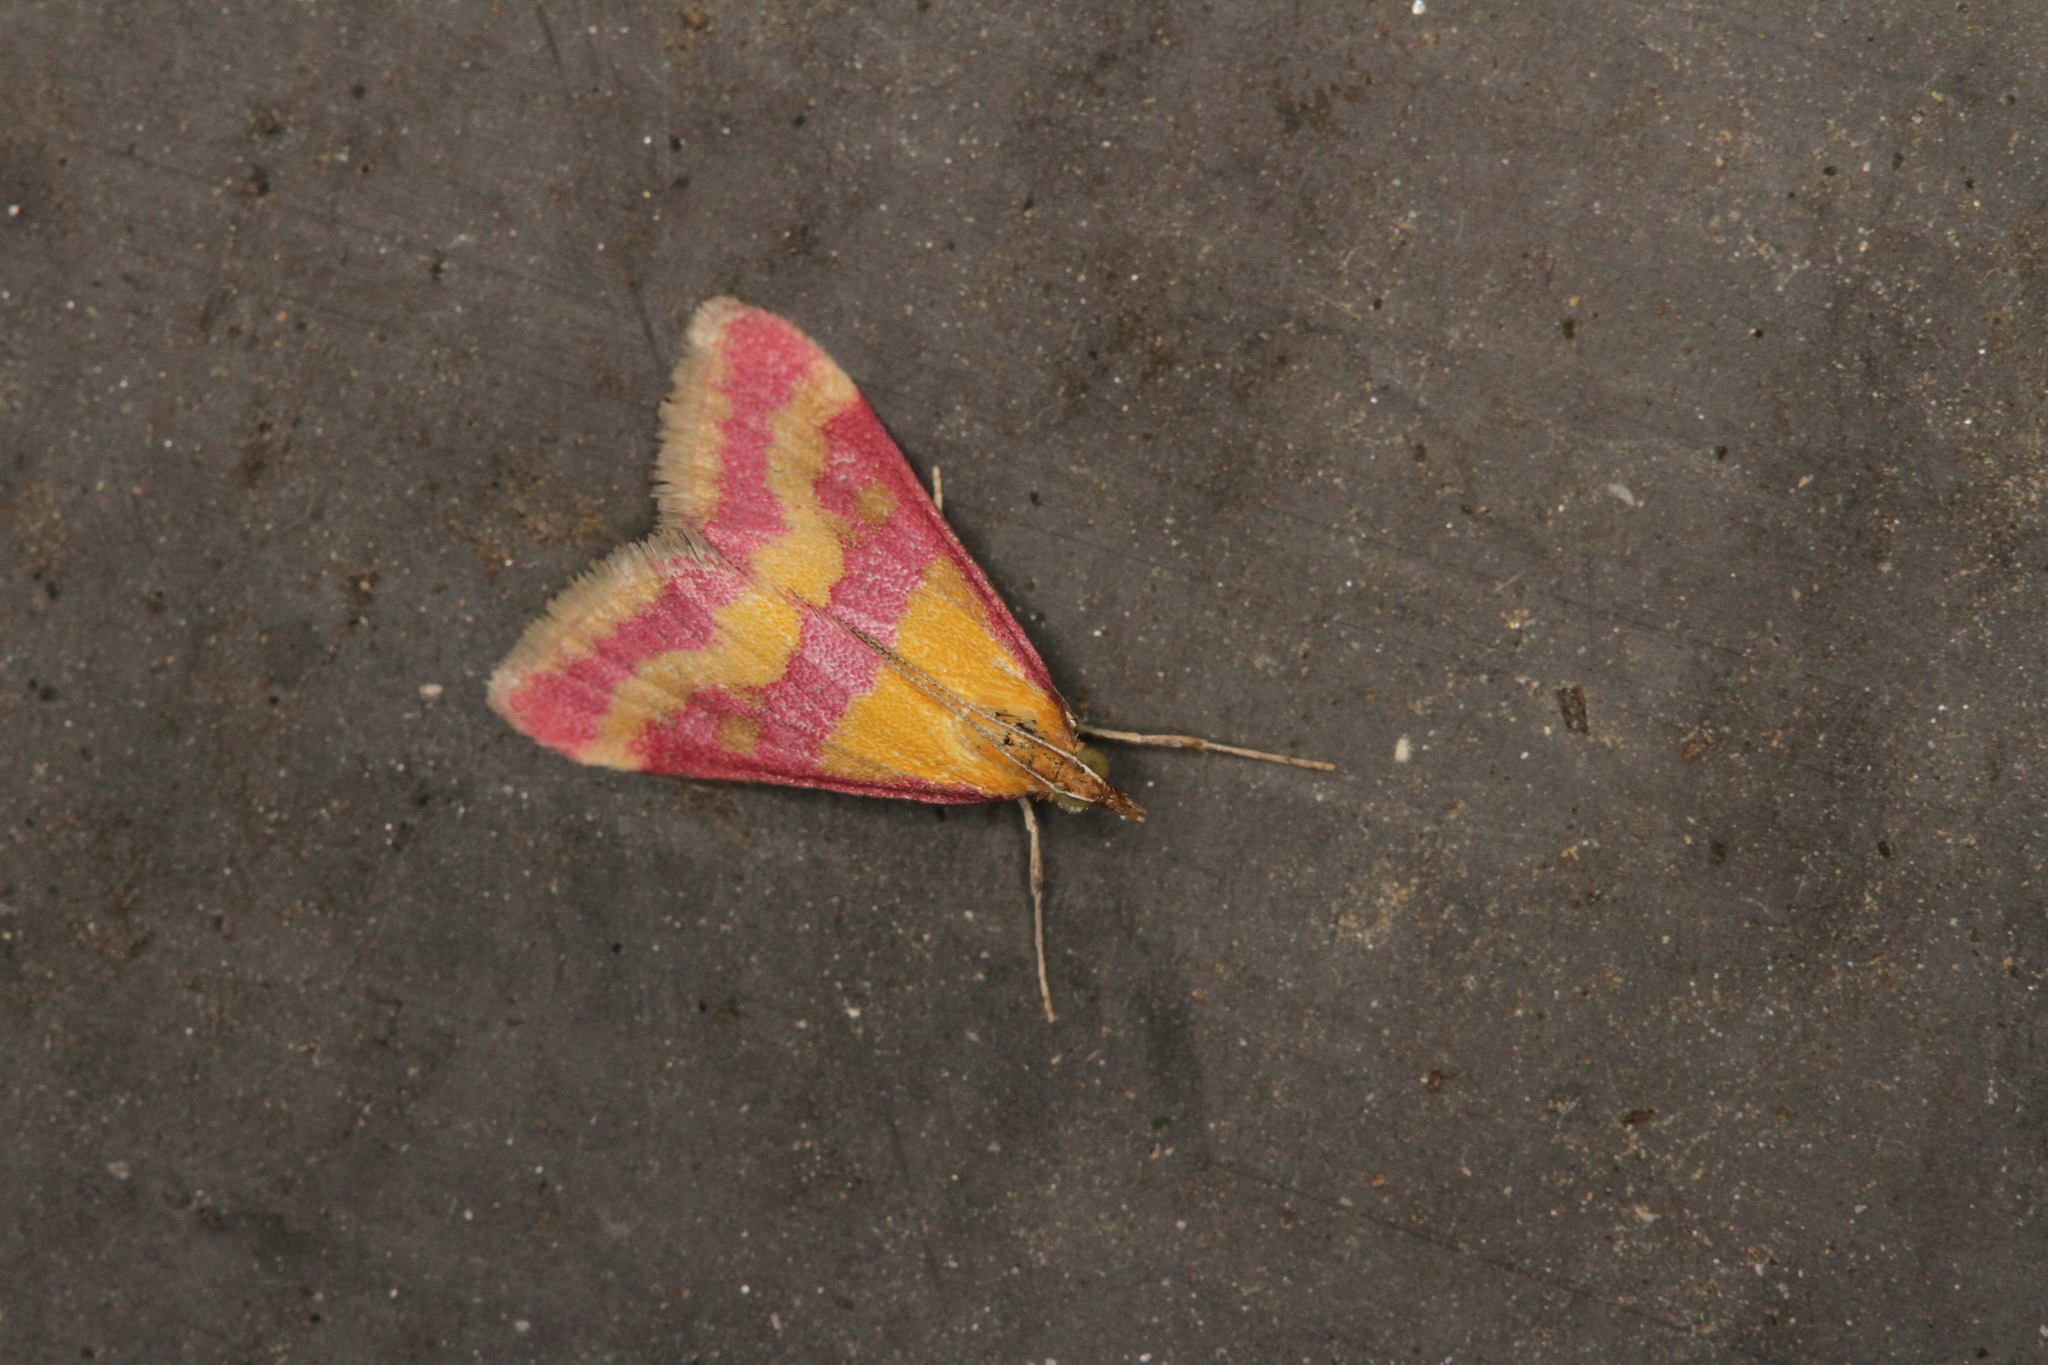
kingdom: Animalia
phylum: Arthropoda
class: Insecta
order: Lepidoptera
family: Crambidae
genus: Pyrausta
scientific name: Pyrausta sanguinalis
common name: Scarce crimson and gold
